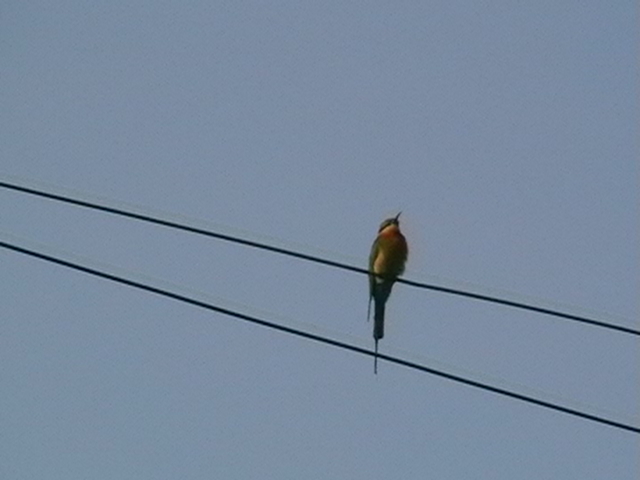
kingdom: Animalia
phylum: Chordata
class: Aves
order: Coraciiformes
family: Meropidae
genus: Merops
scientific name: Merops philippinus
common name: Blue-tailed bee-eater
